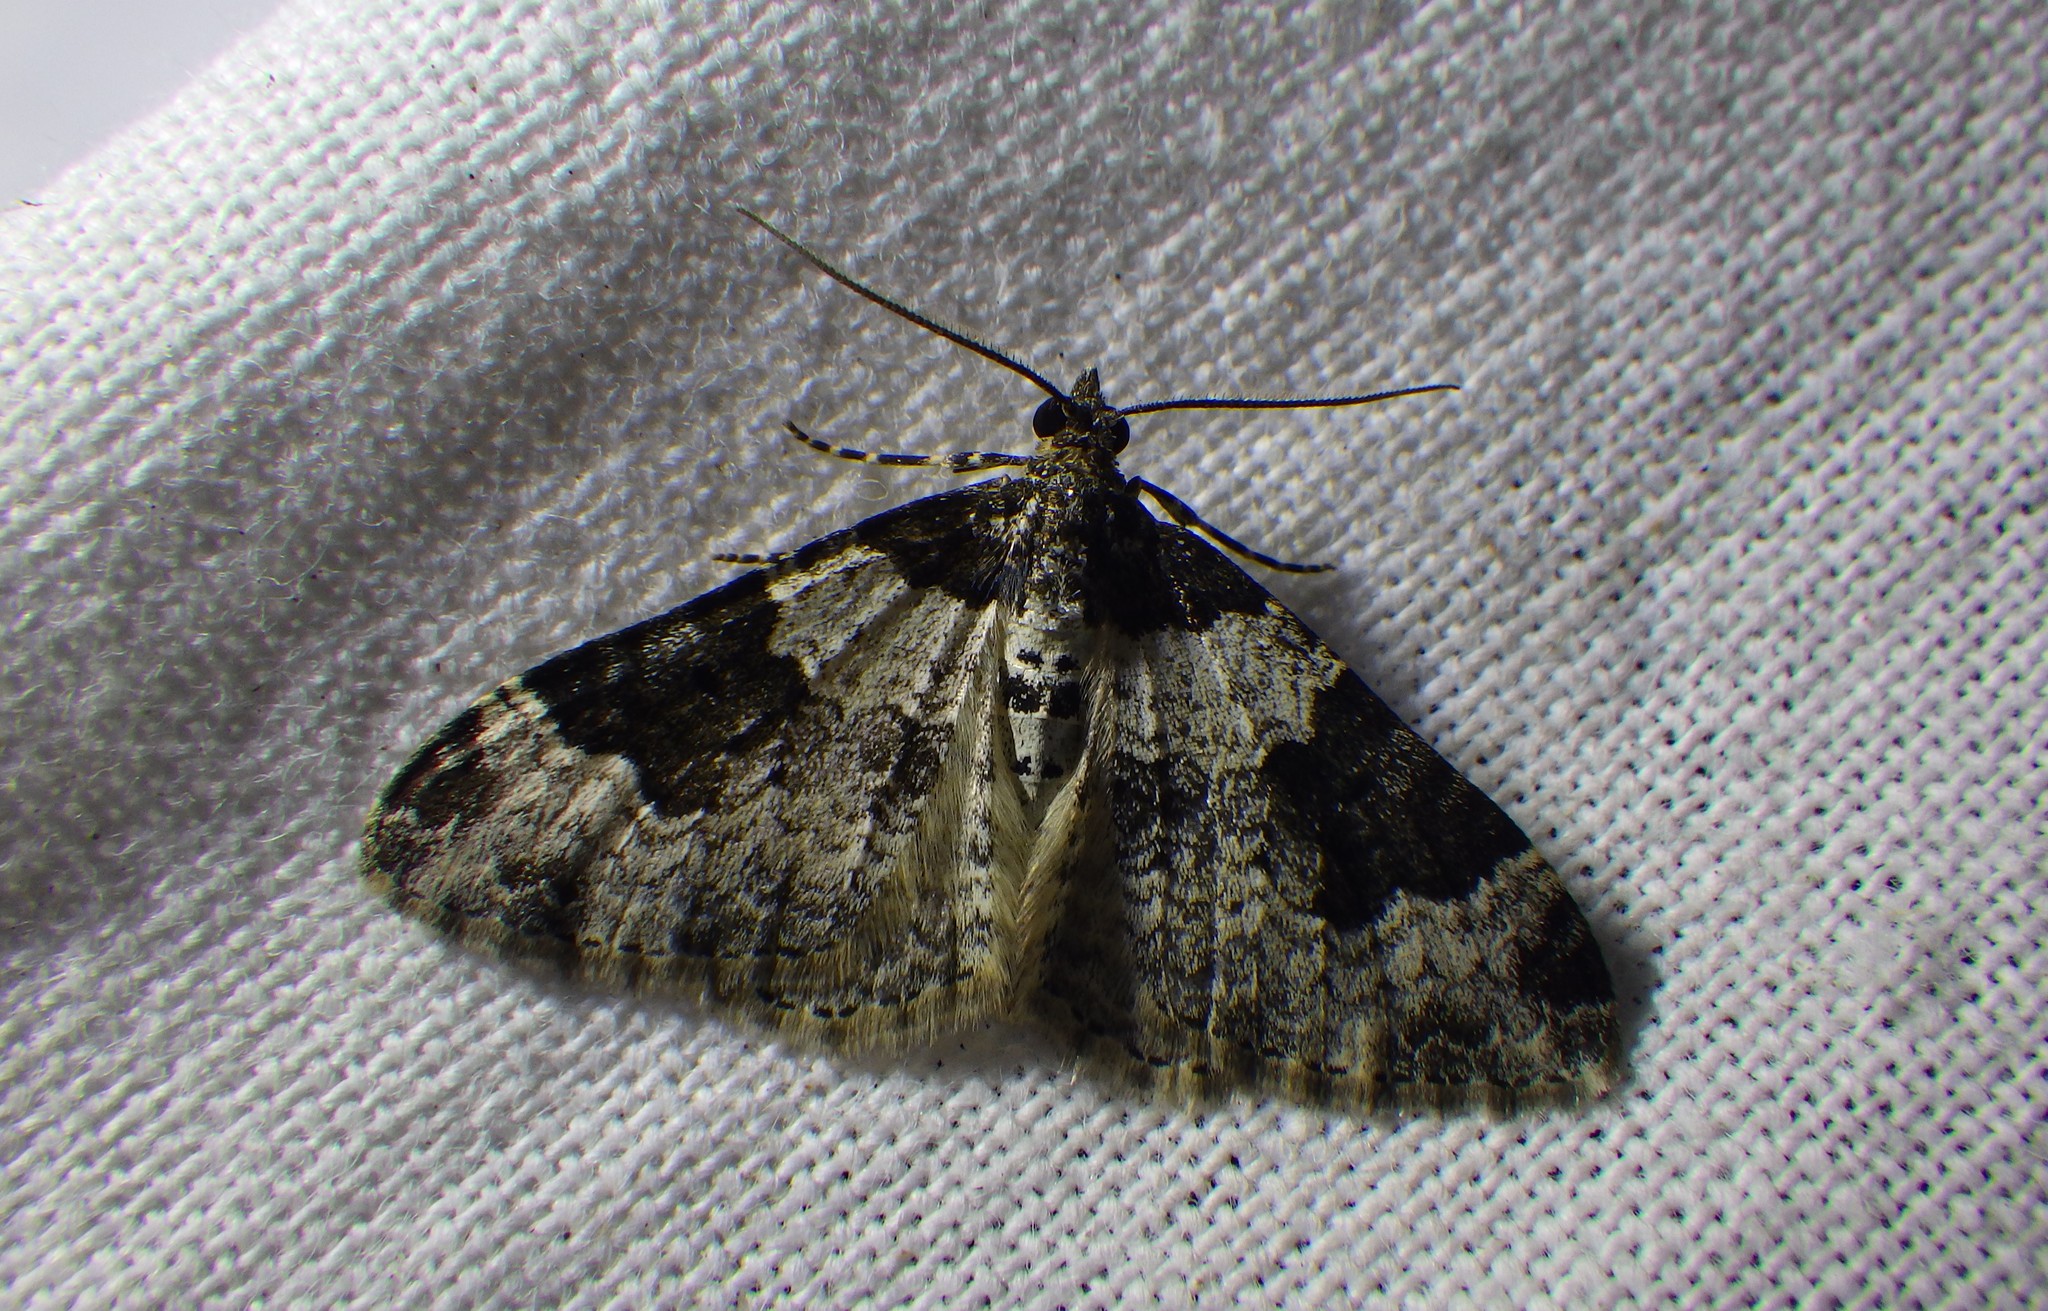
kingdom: Animalia
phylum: Arthropoda
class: Insecta
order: Lepidoptera
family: Geometridae
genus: Xanthorhoe
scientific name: Xanthorhoe fluctuata
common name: Garden carpet
